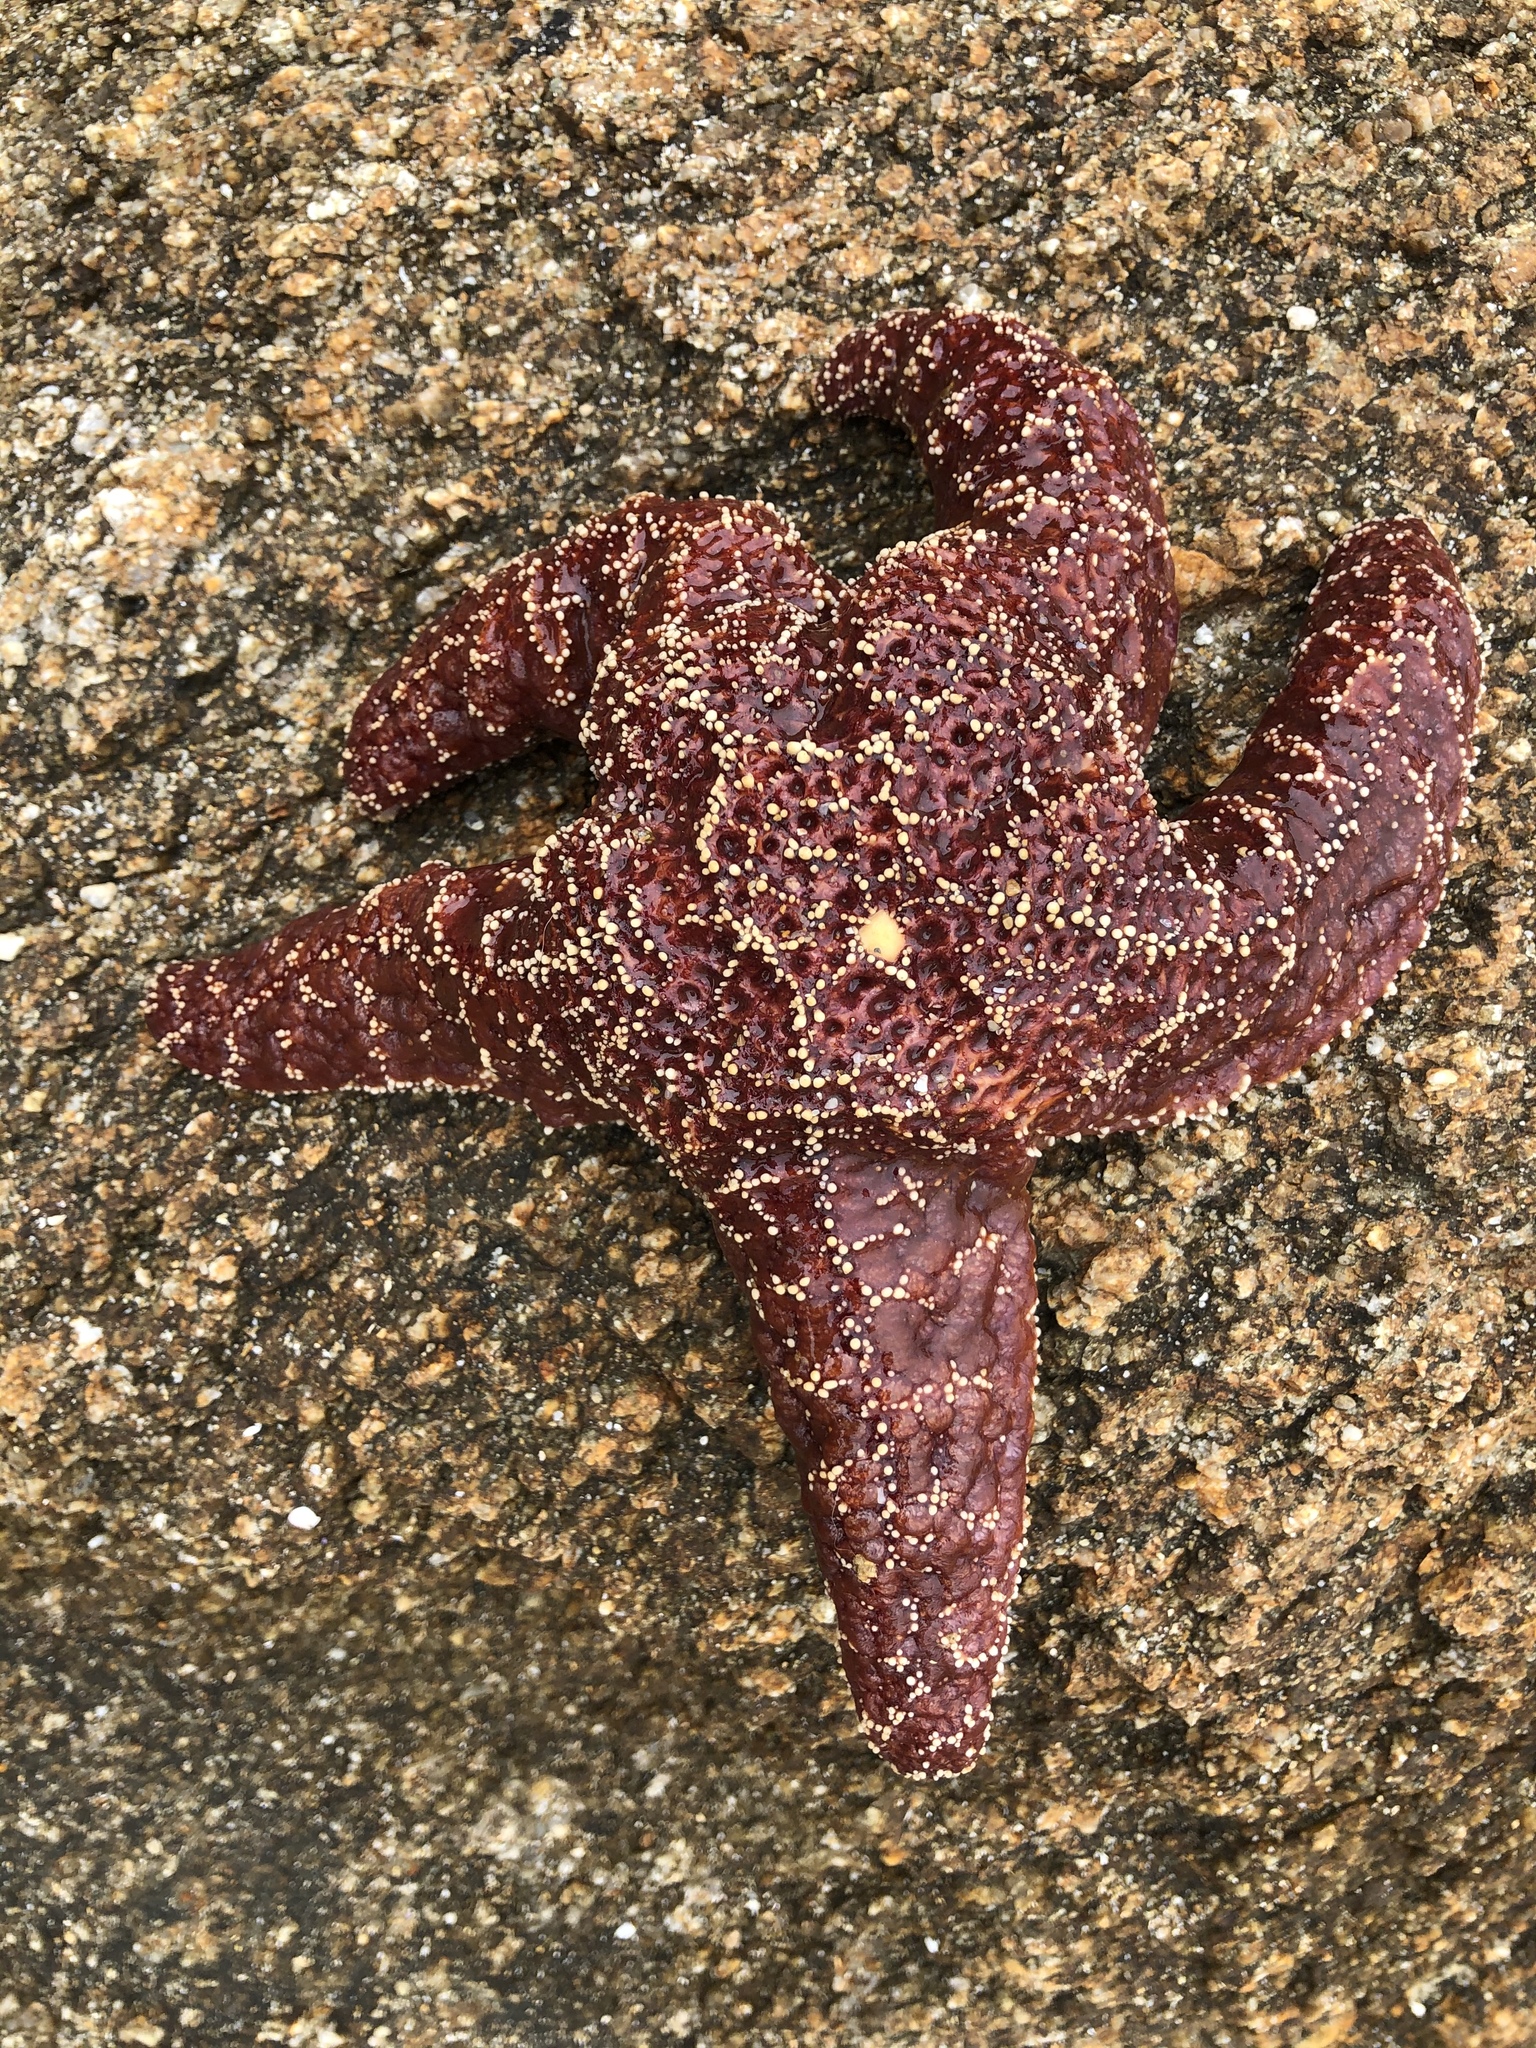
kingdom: Animalia
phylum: Echinodermata
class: Asteroidea
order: Forcipulatida
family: Asteriidae
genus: Pisaster
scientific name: Pisaster ochraceus
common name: Ochre stars
